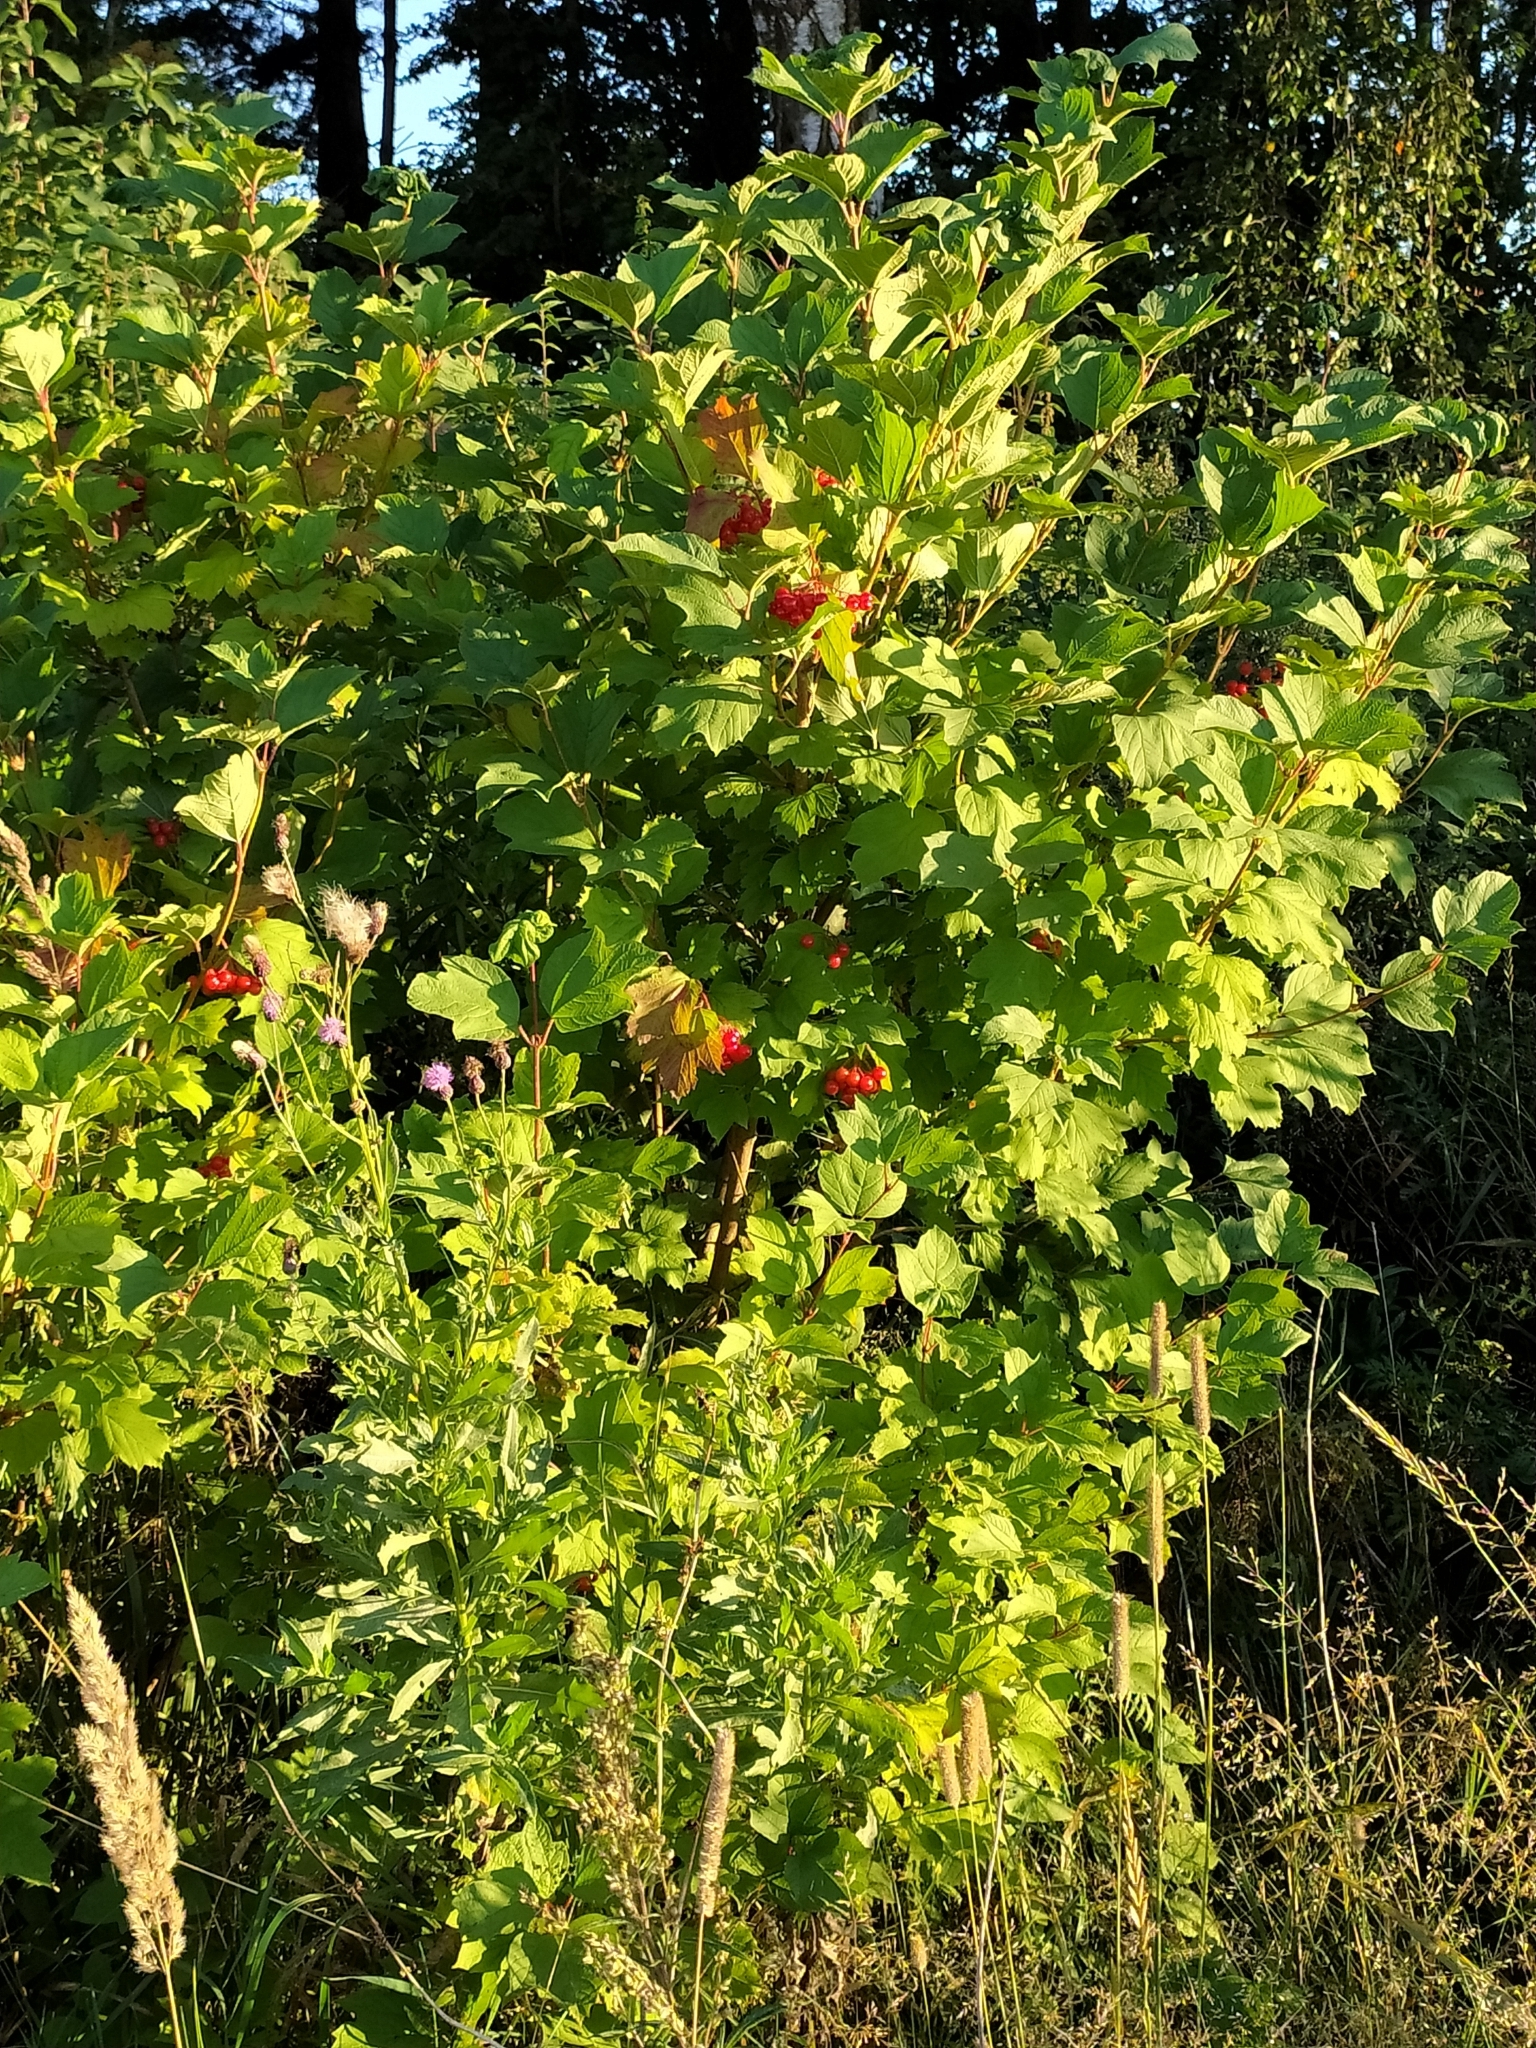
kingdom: Plantae
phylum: Tracheophyta
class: Magnoliopsida
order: Dipsacales
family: Viburnaceae
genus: Viburnum
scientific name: Viburnum opulus
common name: Guelder-rose
